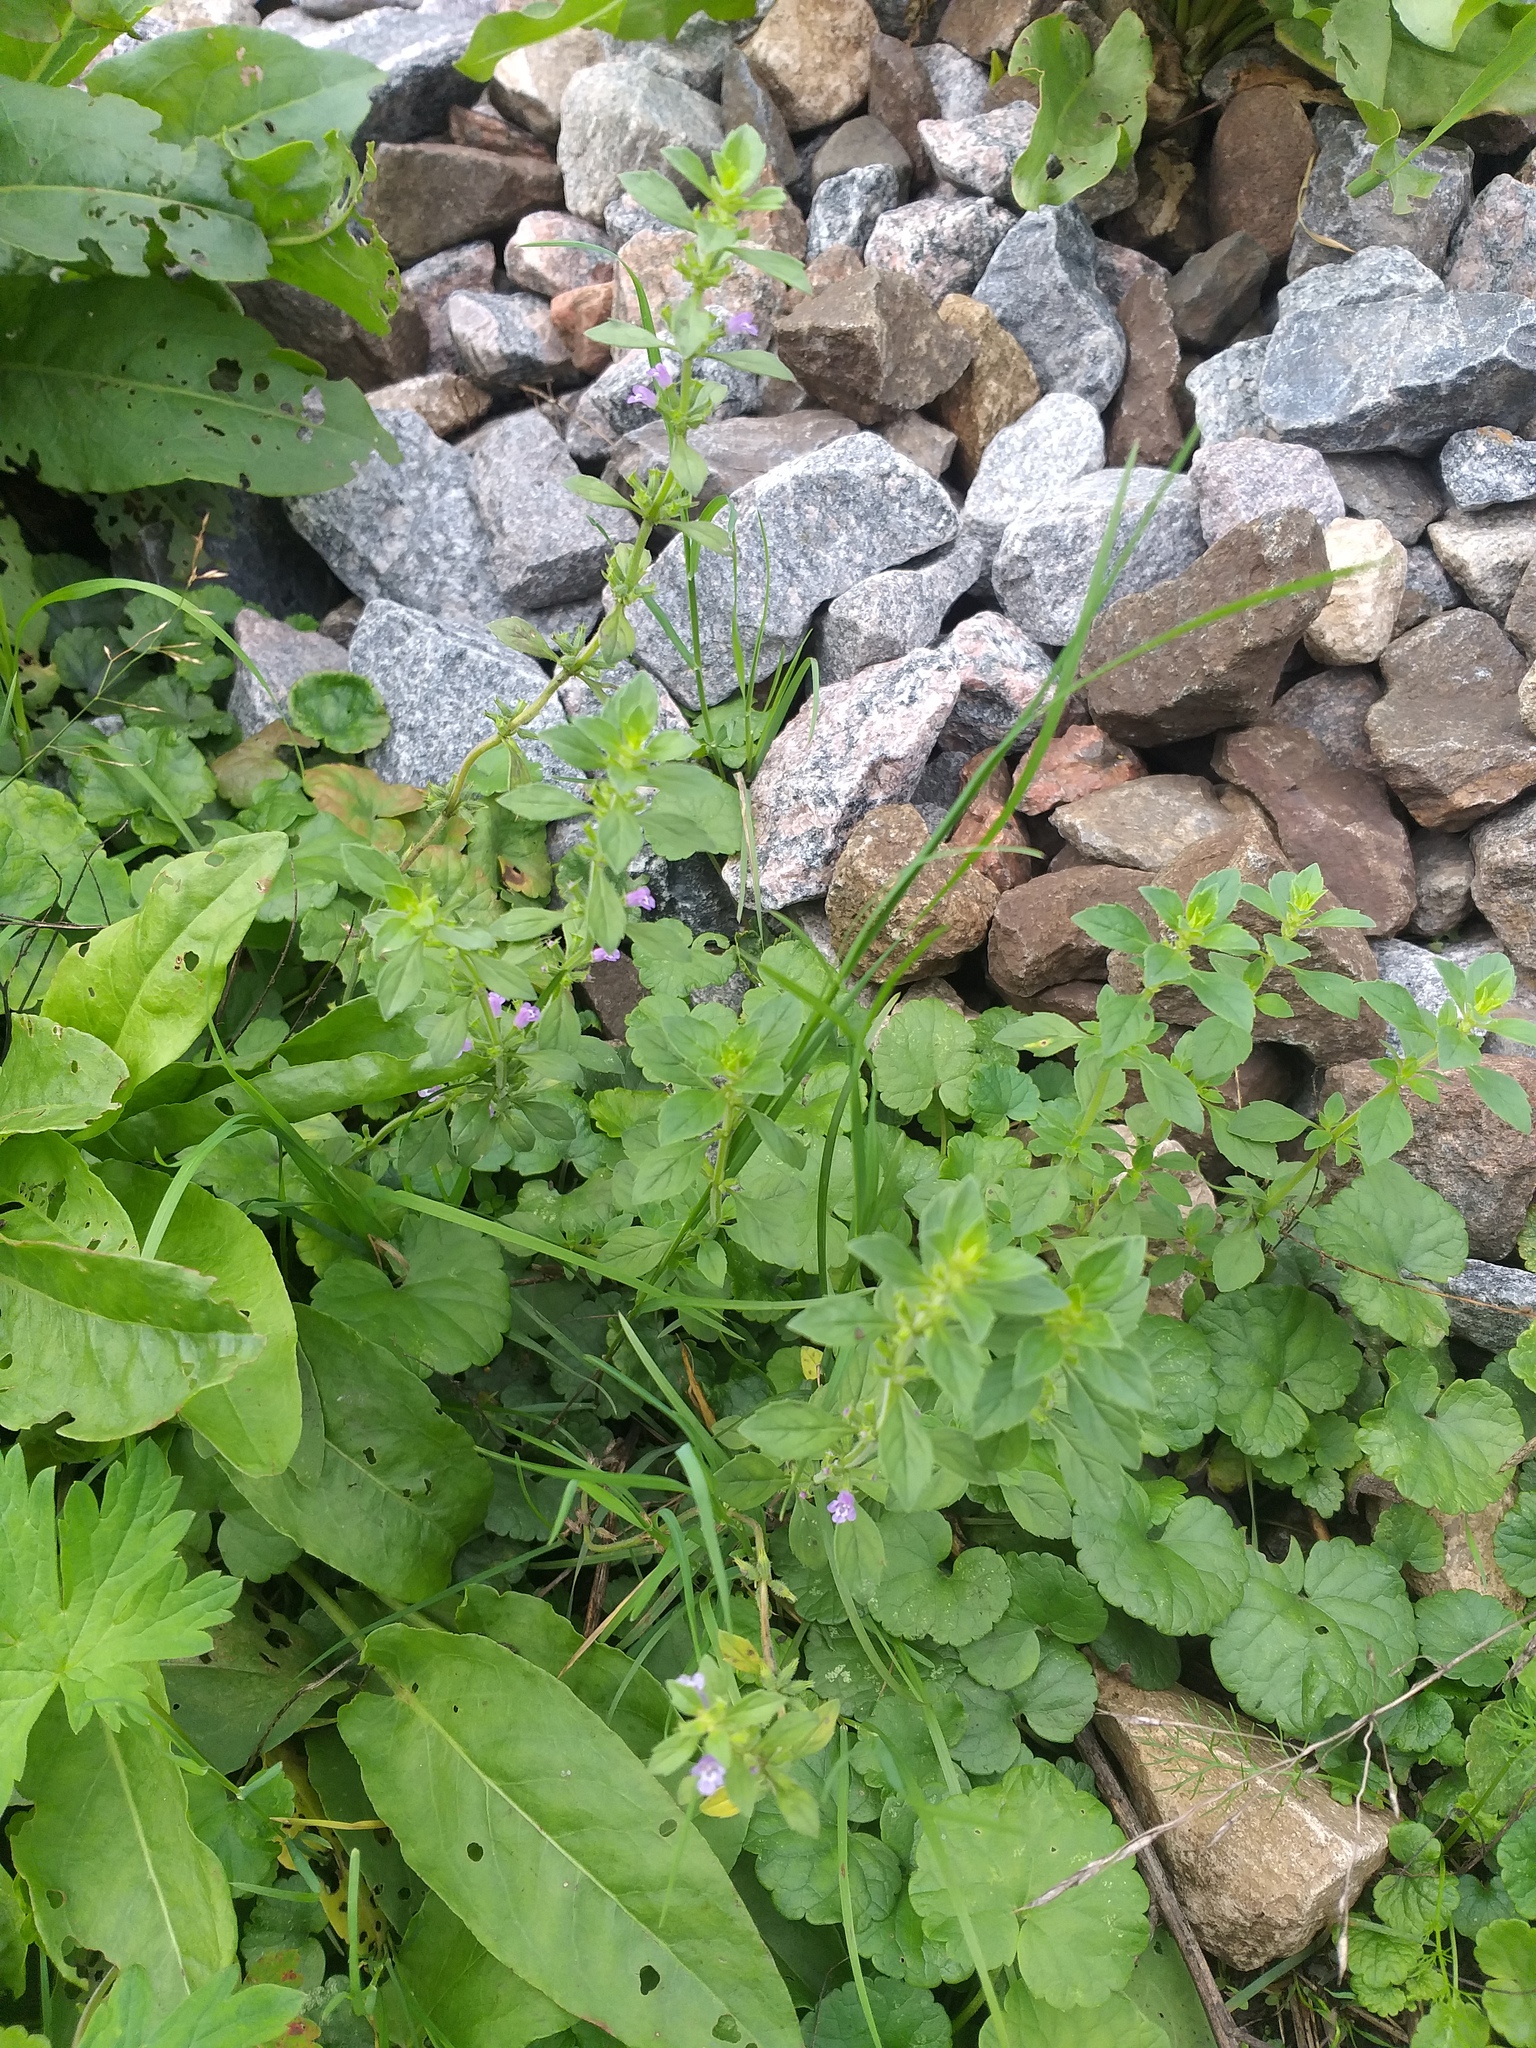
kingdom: Plantae
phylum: Tracheophyta
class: Magnoliopsida
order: Lamiales
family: Lamiaceae
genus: Mentha
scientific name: Mentha arvensis
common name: Corn mint
